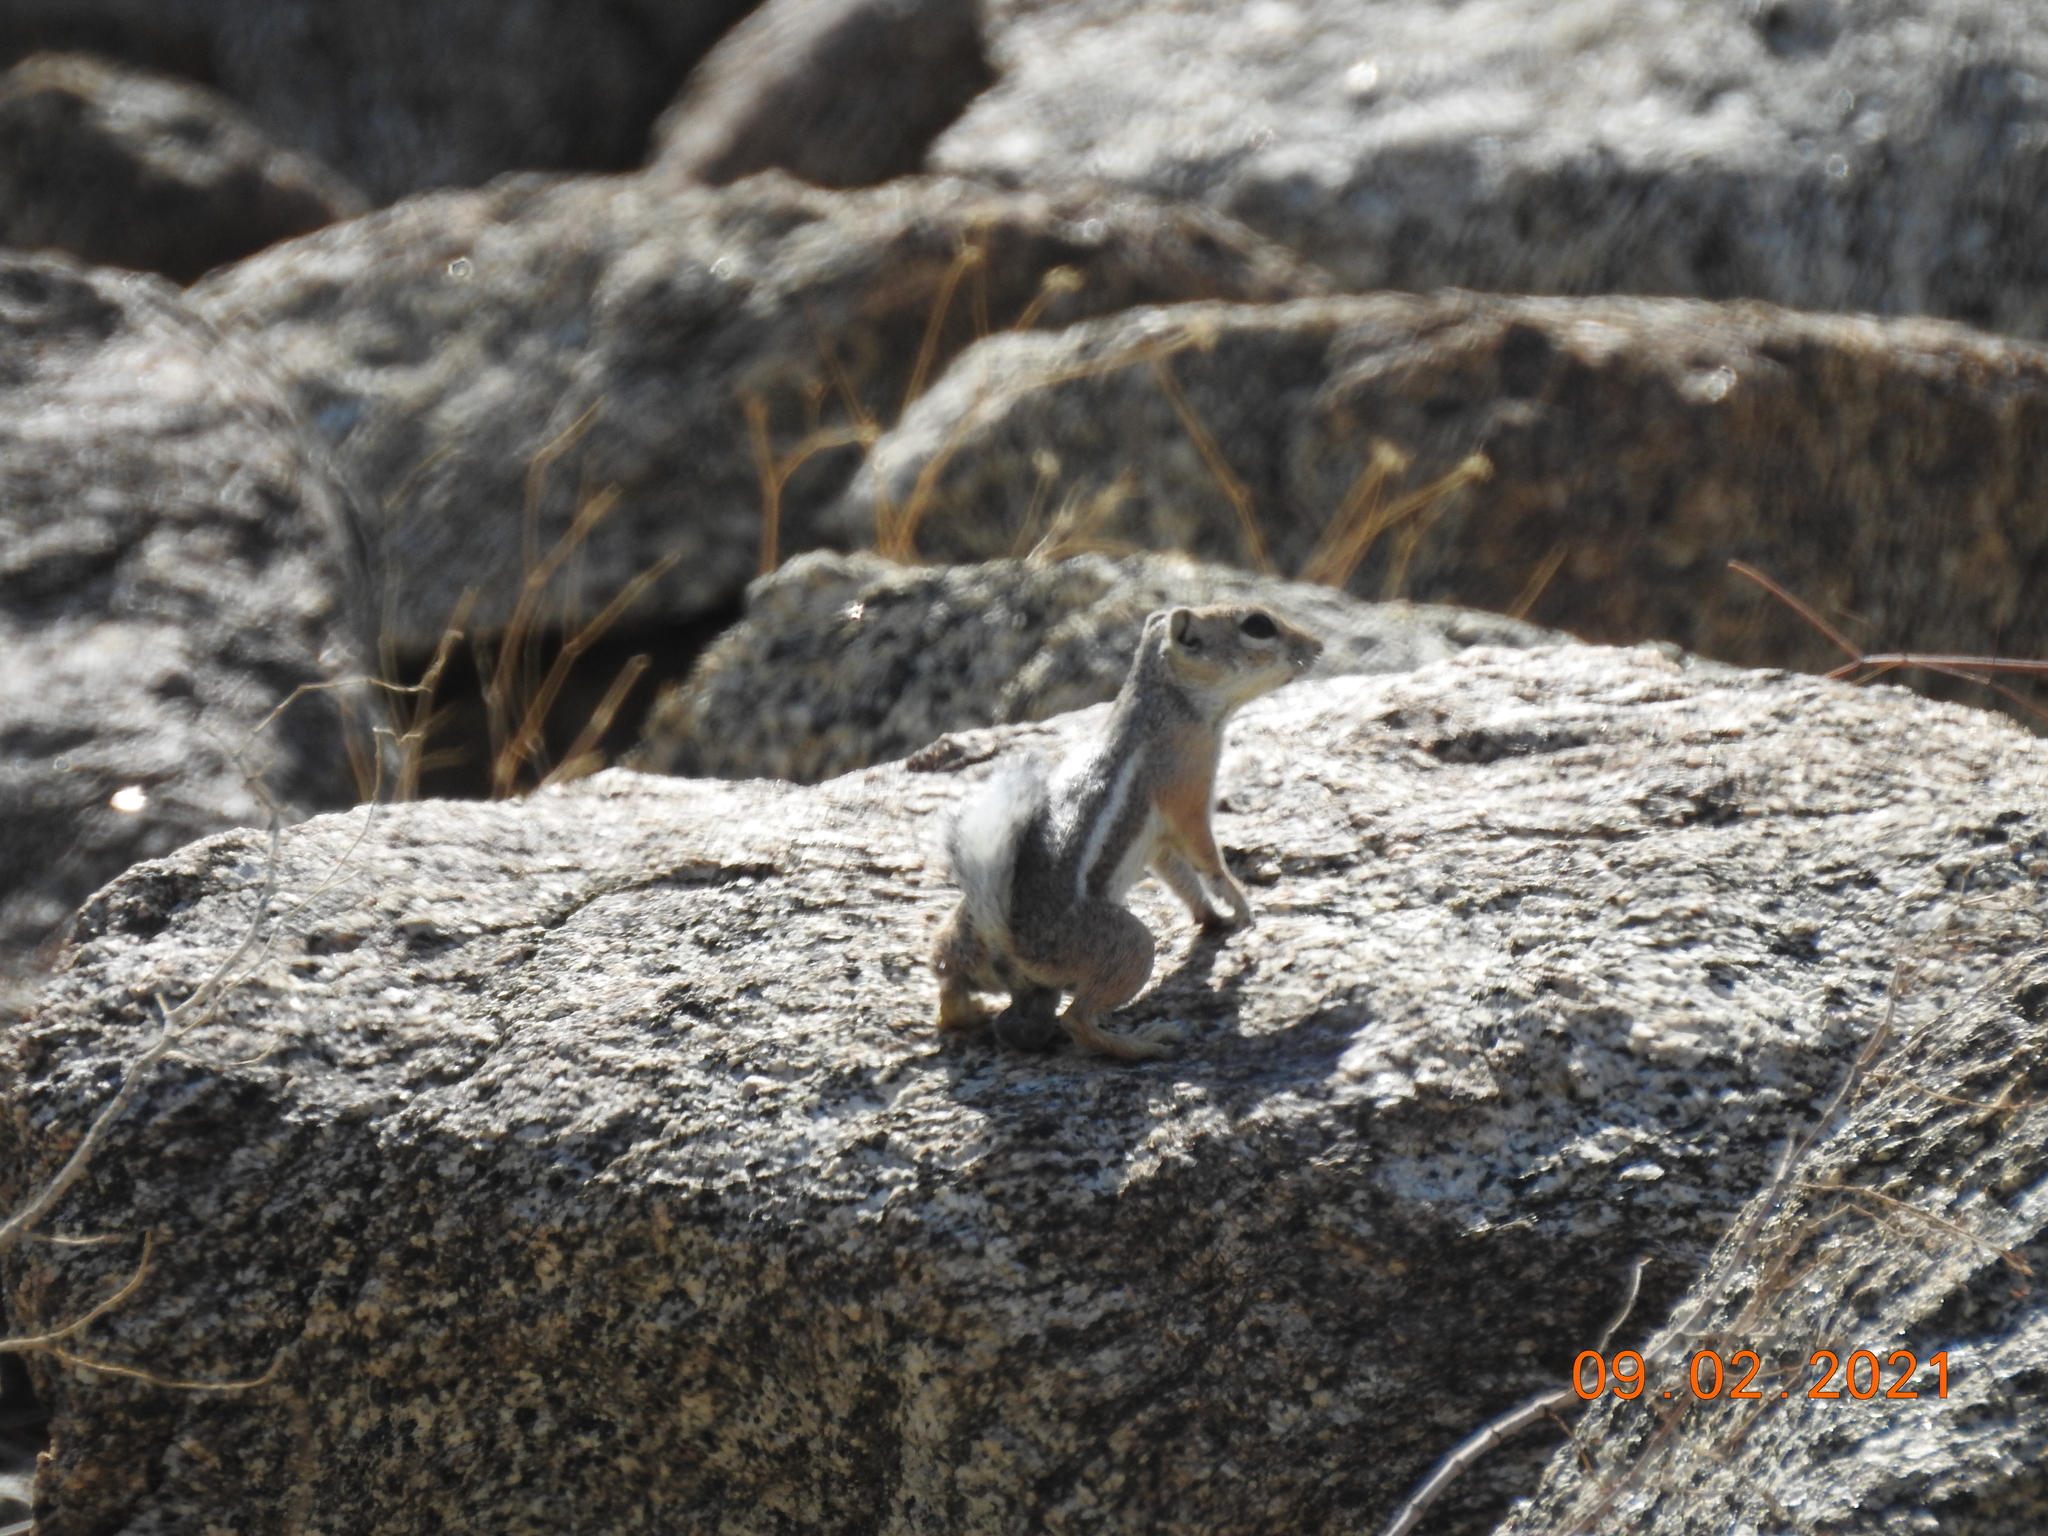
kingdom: Animalia
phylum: Chordata
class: Mammalia
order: Rodentia
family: Sciuridae
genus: Ammospermophilus
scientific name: Ammospermophilus leucurus
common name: White-tailed antelope squirrel
